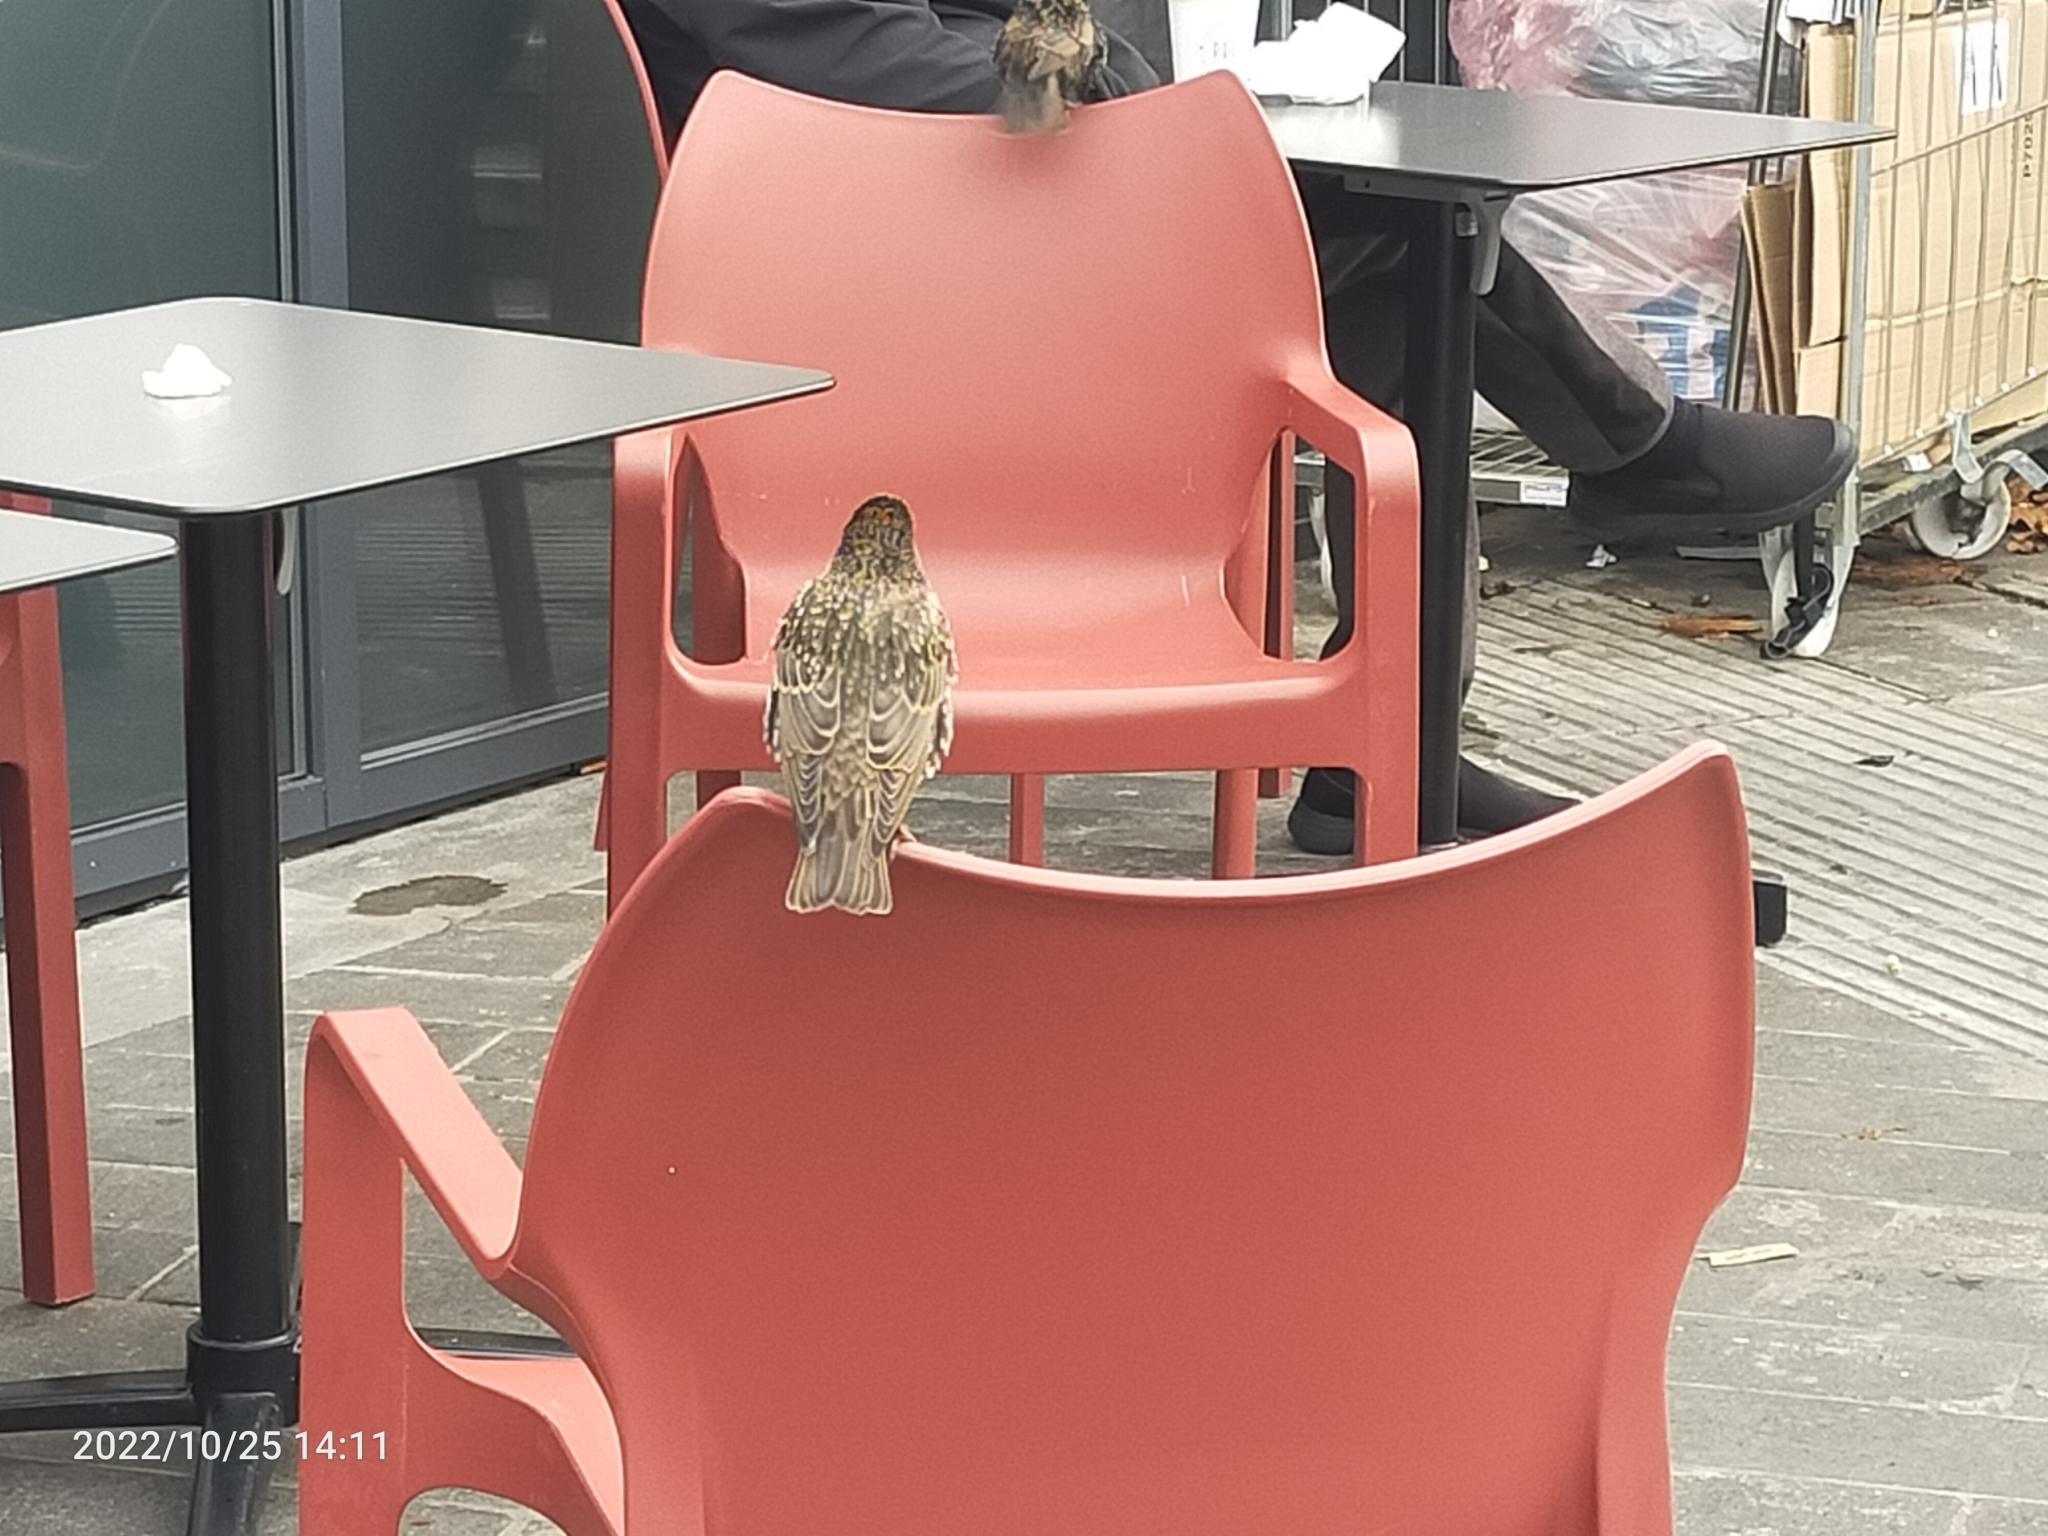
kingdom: Animalia
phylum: Chordata
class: Aves
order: Passeriformes
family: Sturnidae
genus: Sturnus
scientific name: Sturnus vulgaris
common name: Common starling
